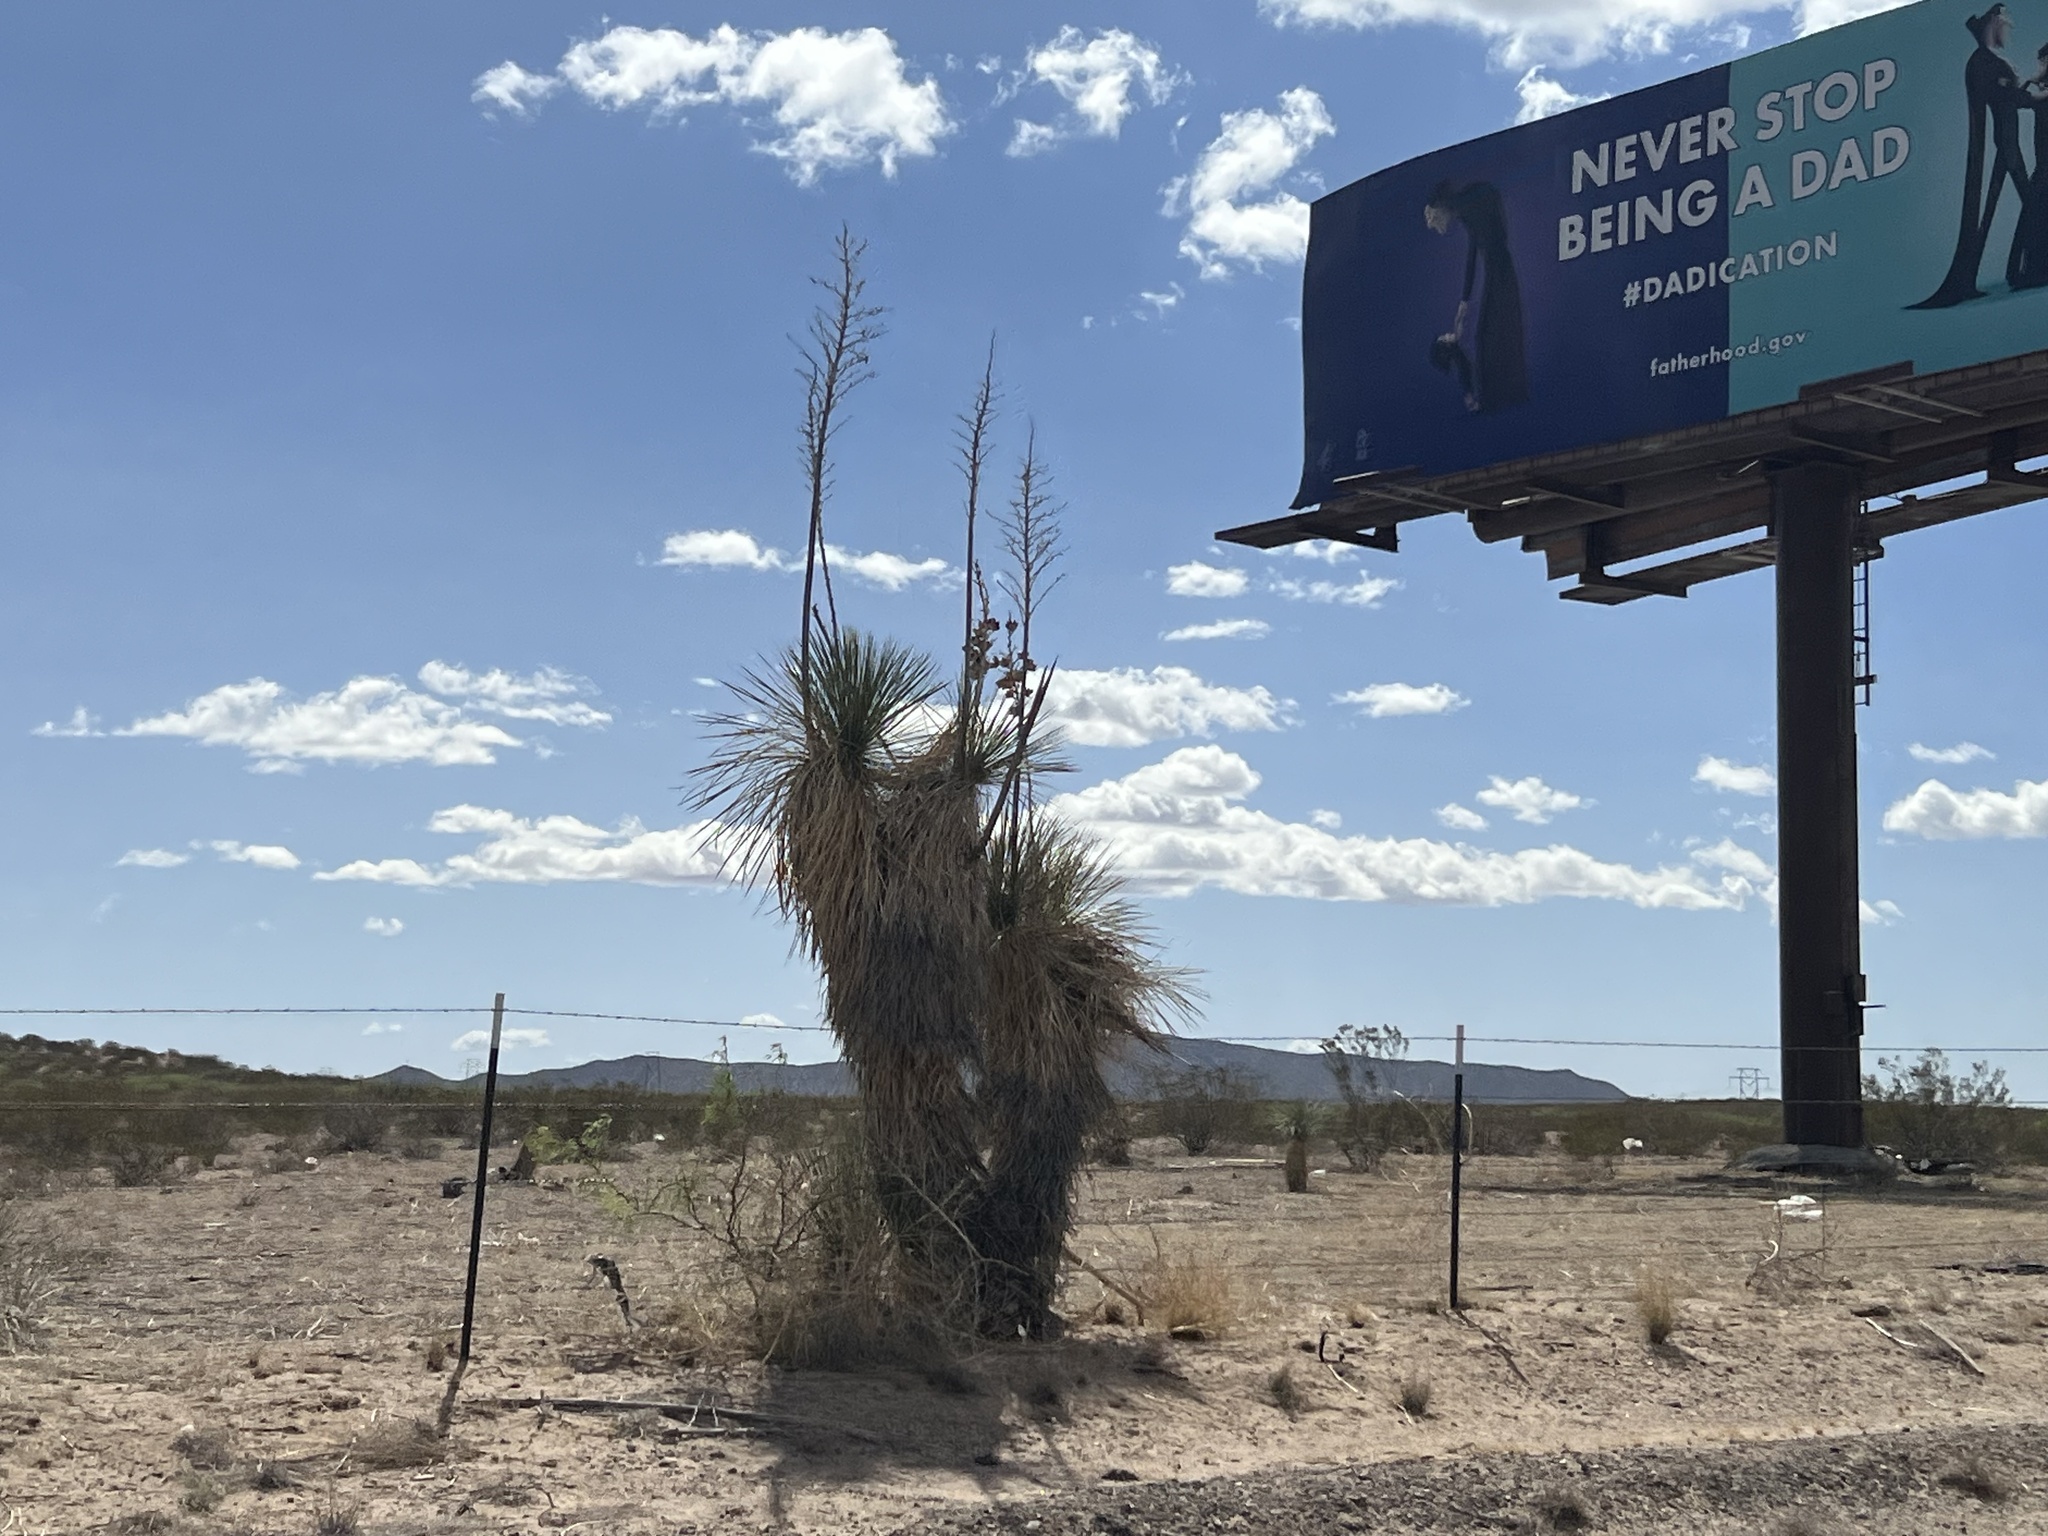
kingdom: Plantae
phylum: Tracheophyta
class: Liliopsida
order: Asparagales
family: Asparagaceae
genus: Yucca
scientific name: Yucca elata
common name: Palmella
